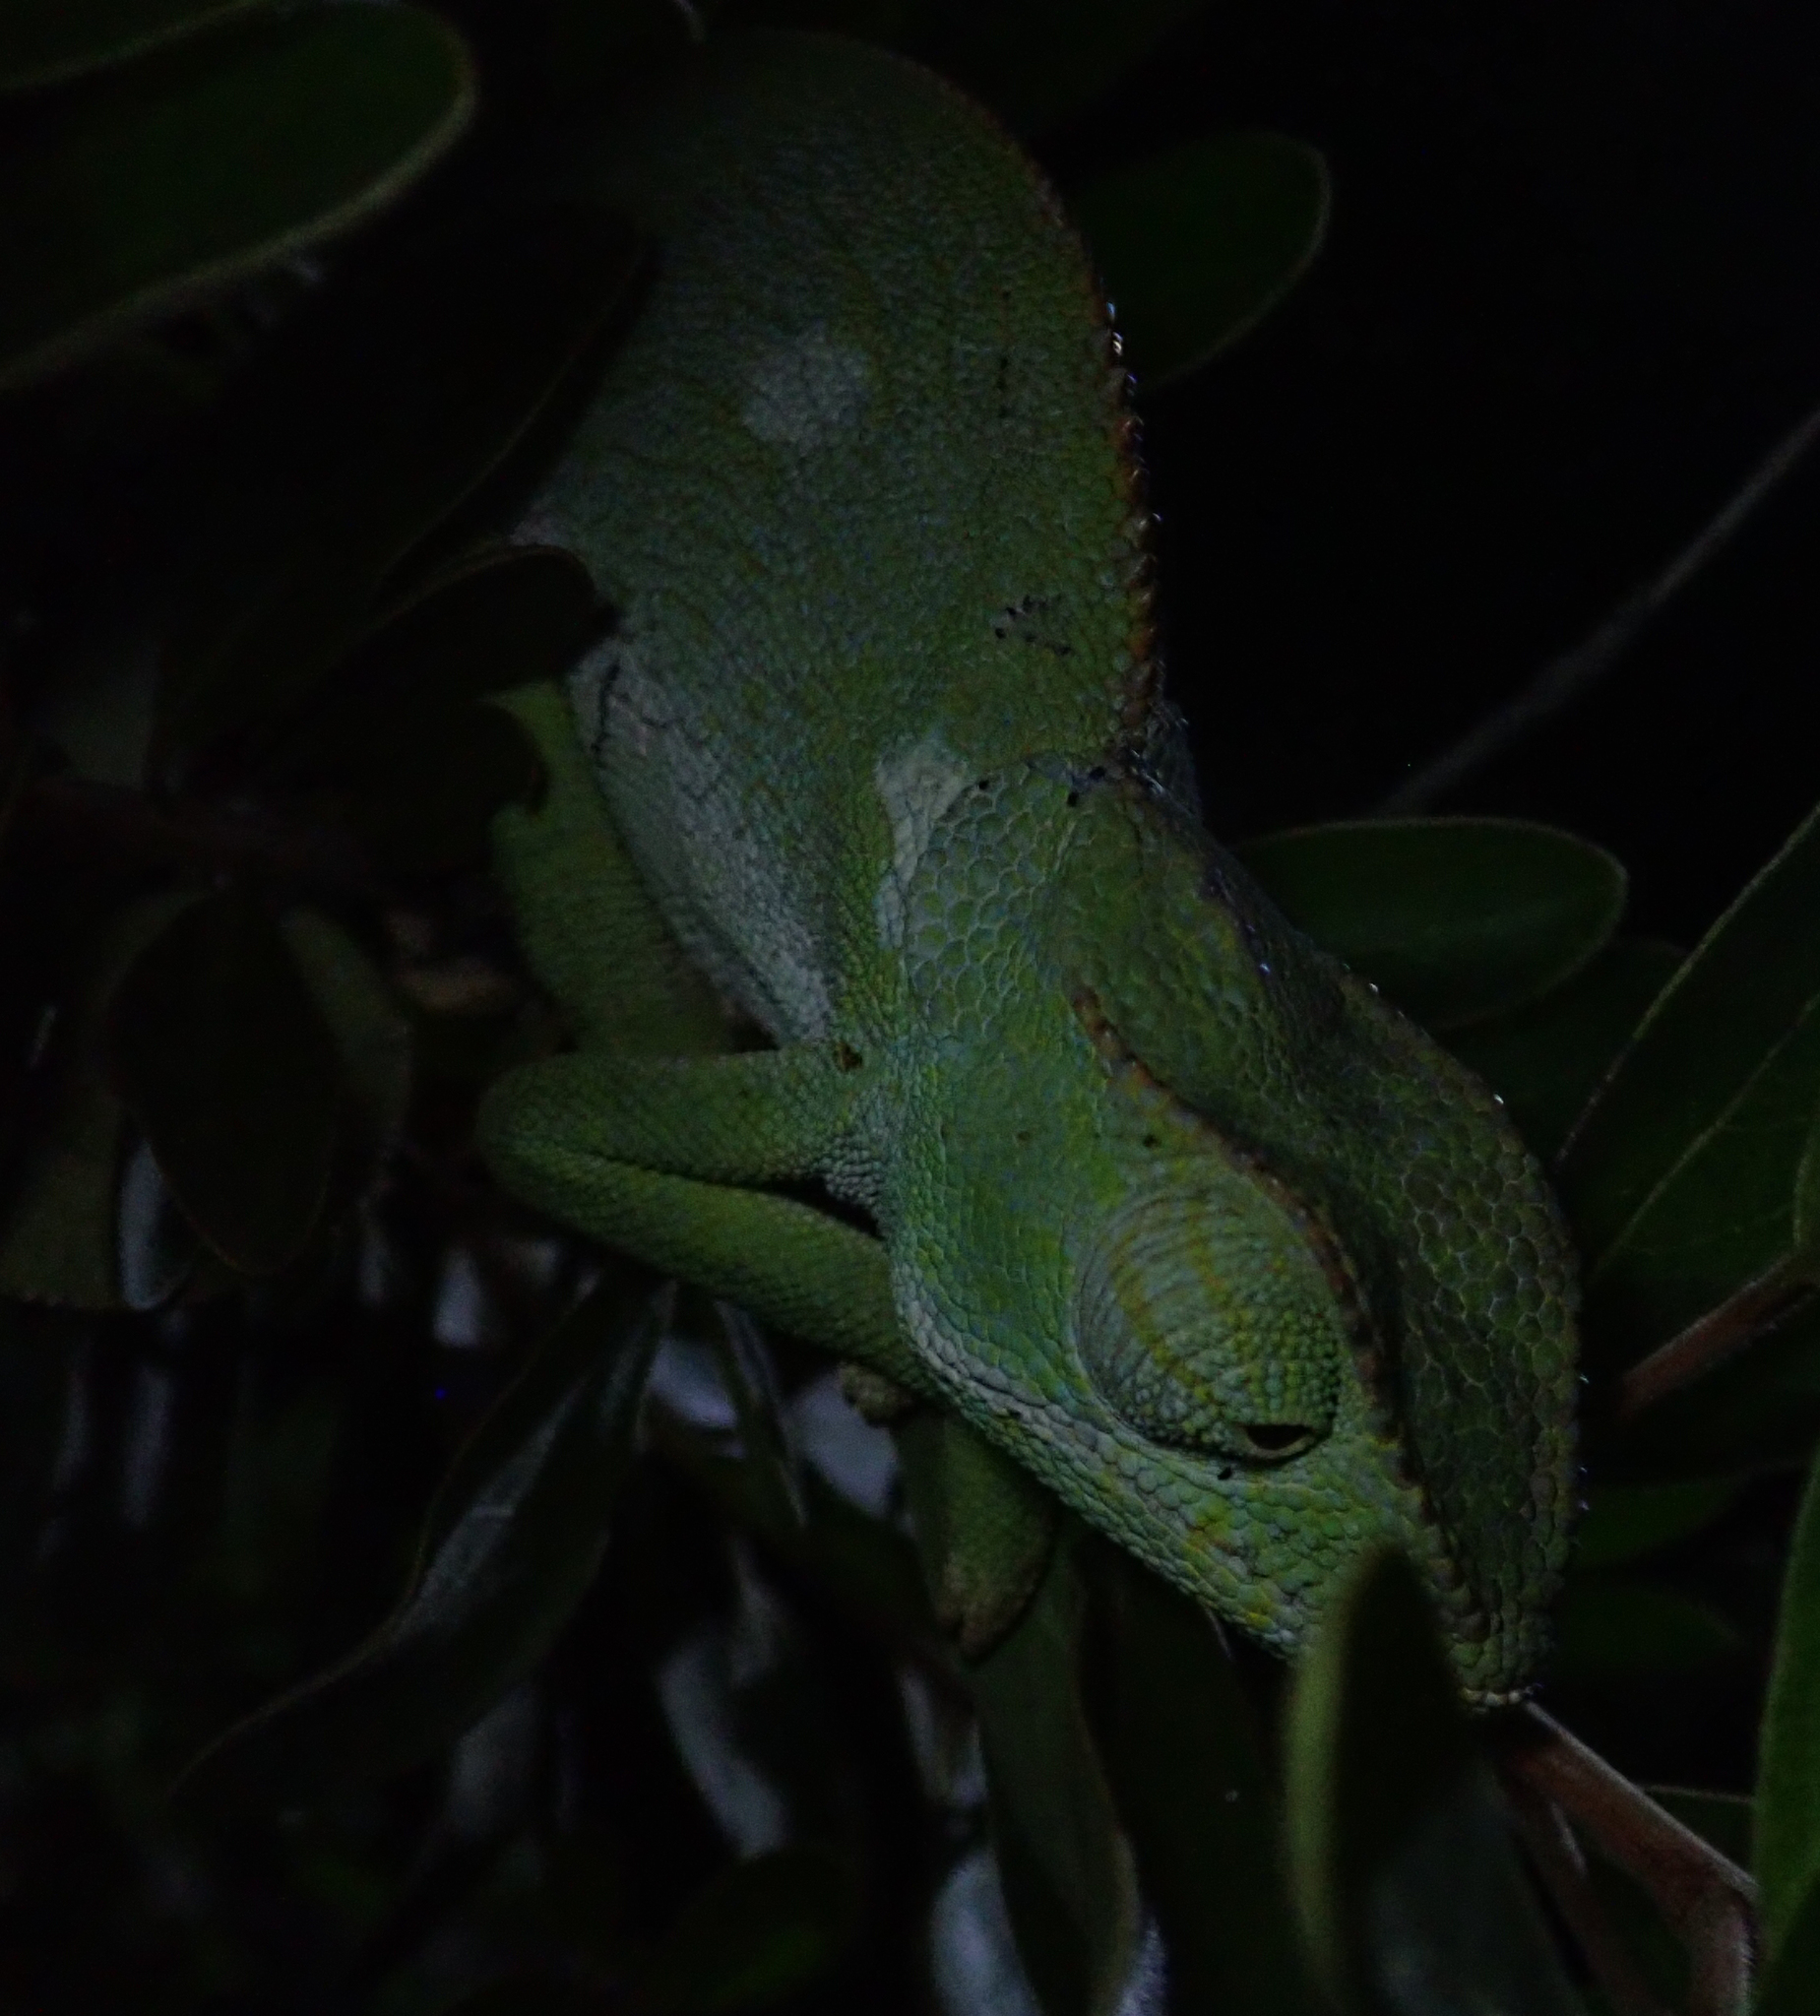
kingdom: Animalia
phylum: Chordata
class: Squamata
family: Chamaeleonidae
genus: Chamaeleo
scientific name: Chamaeleo dilepis
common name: Flapneck chameleon
